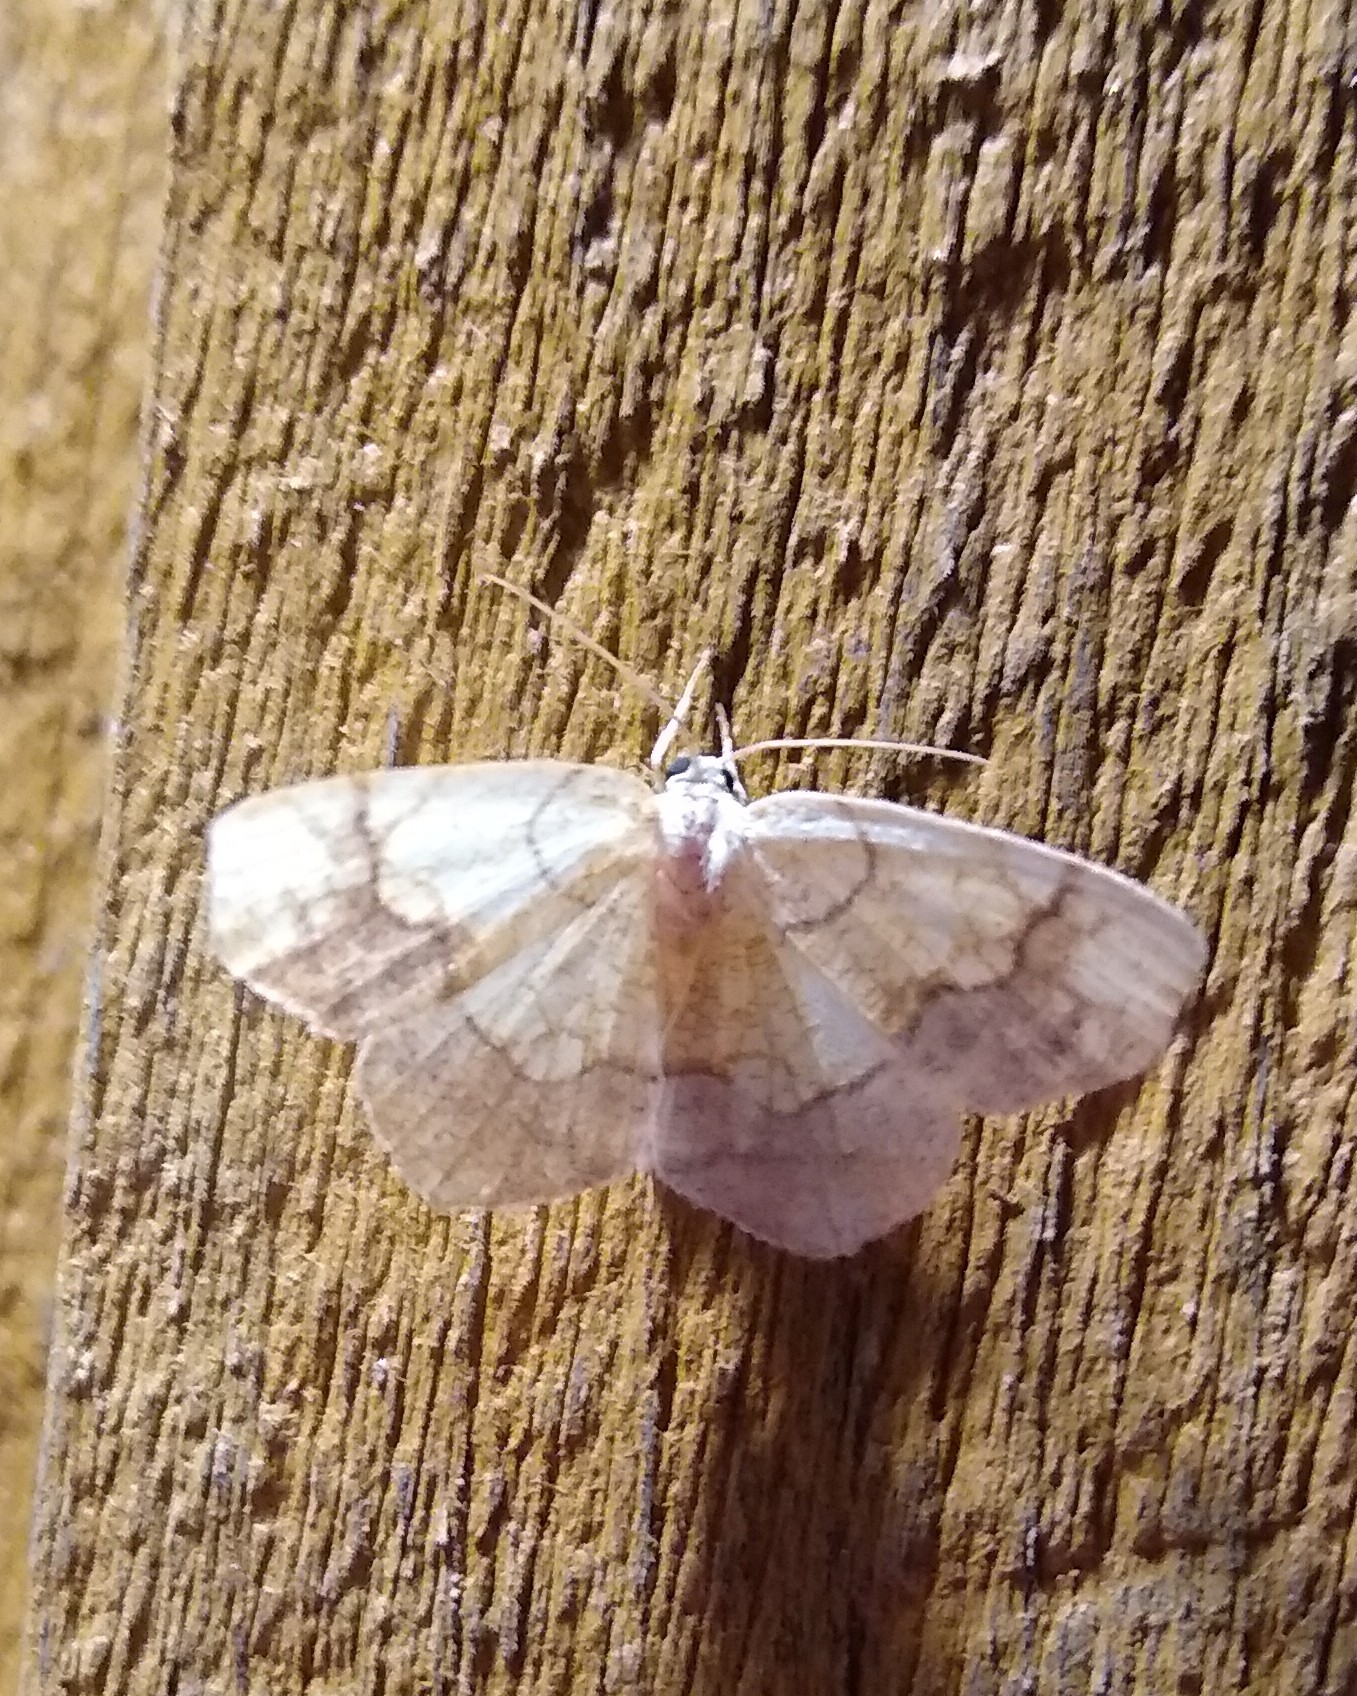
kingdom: Animalia
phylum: Arthropoda
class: Insecta
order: Lepidoptera
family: Geometridae
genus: Nematocampa
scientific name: Nematocampa resistaria
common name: Horned spanworm moth
